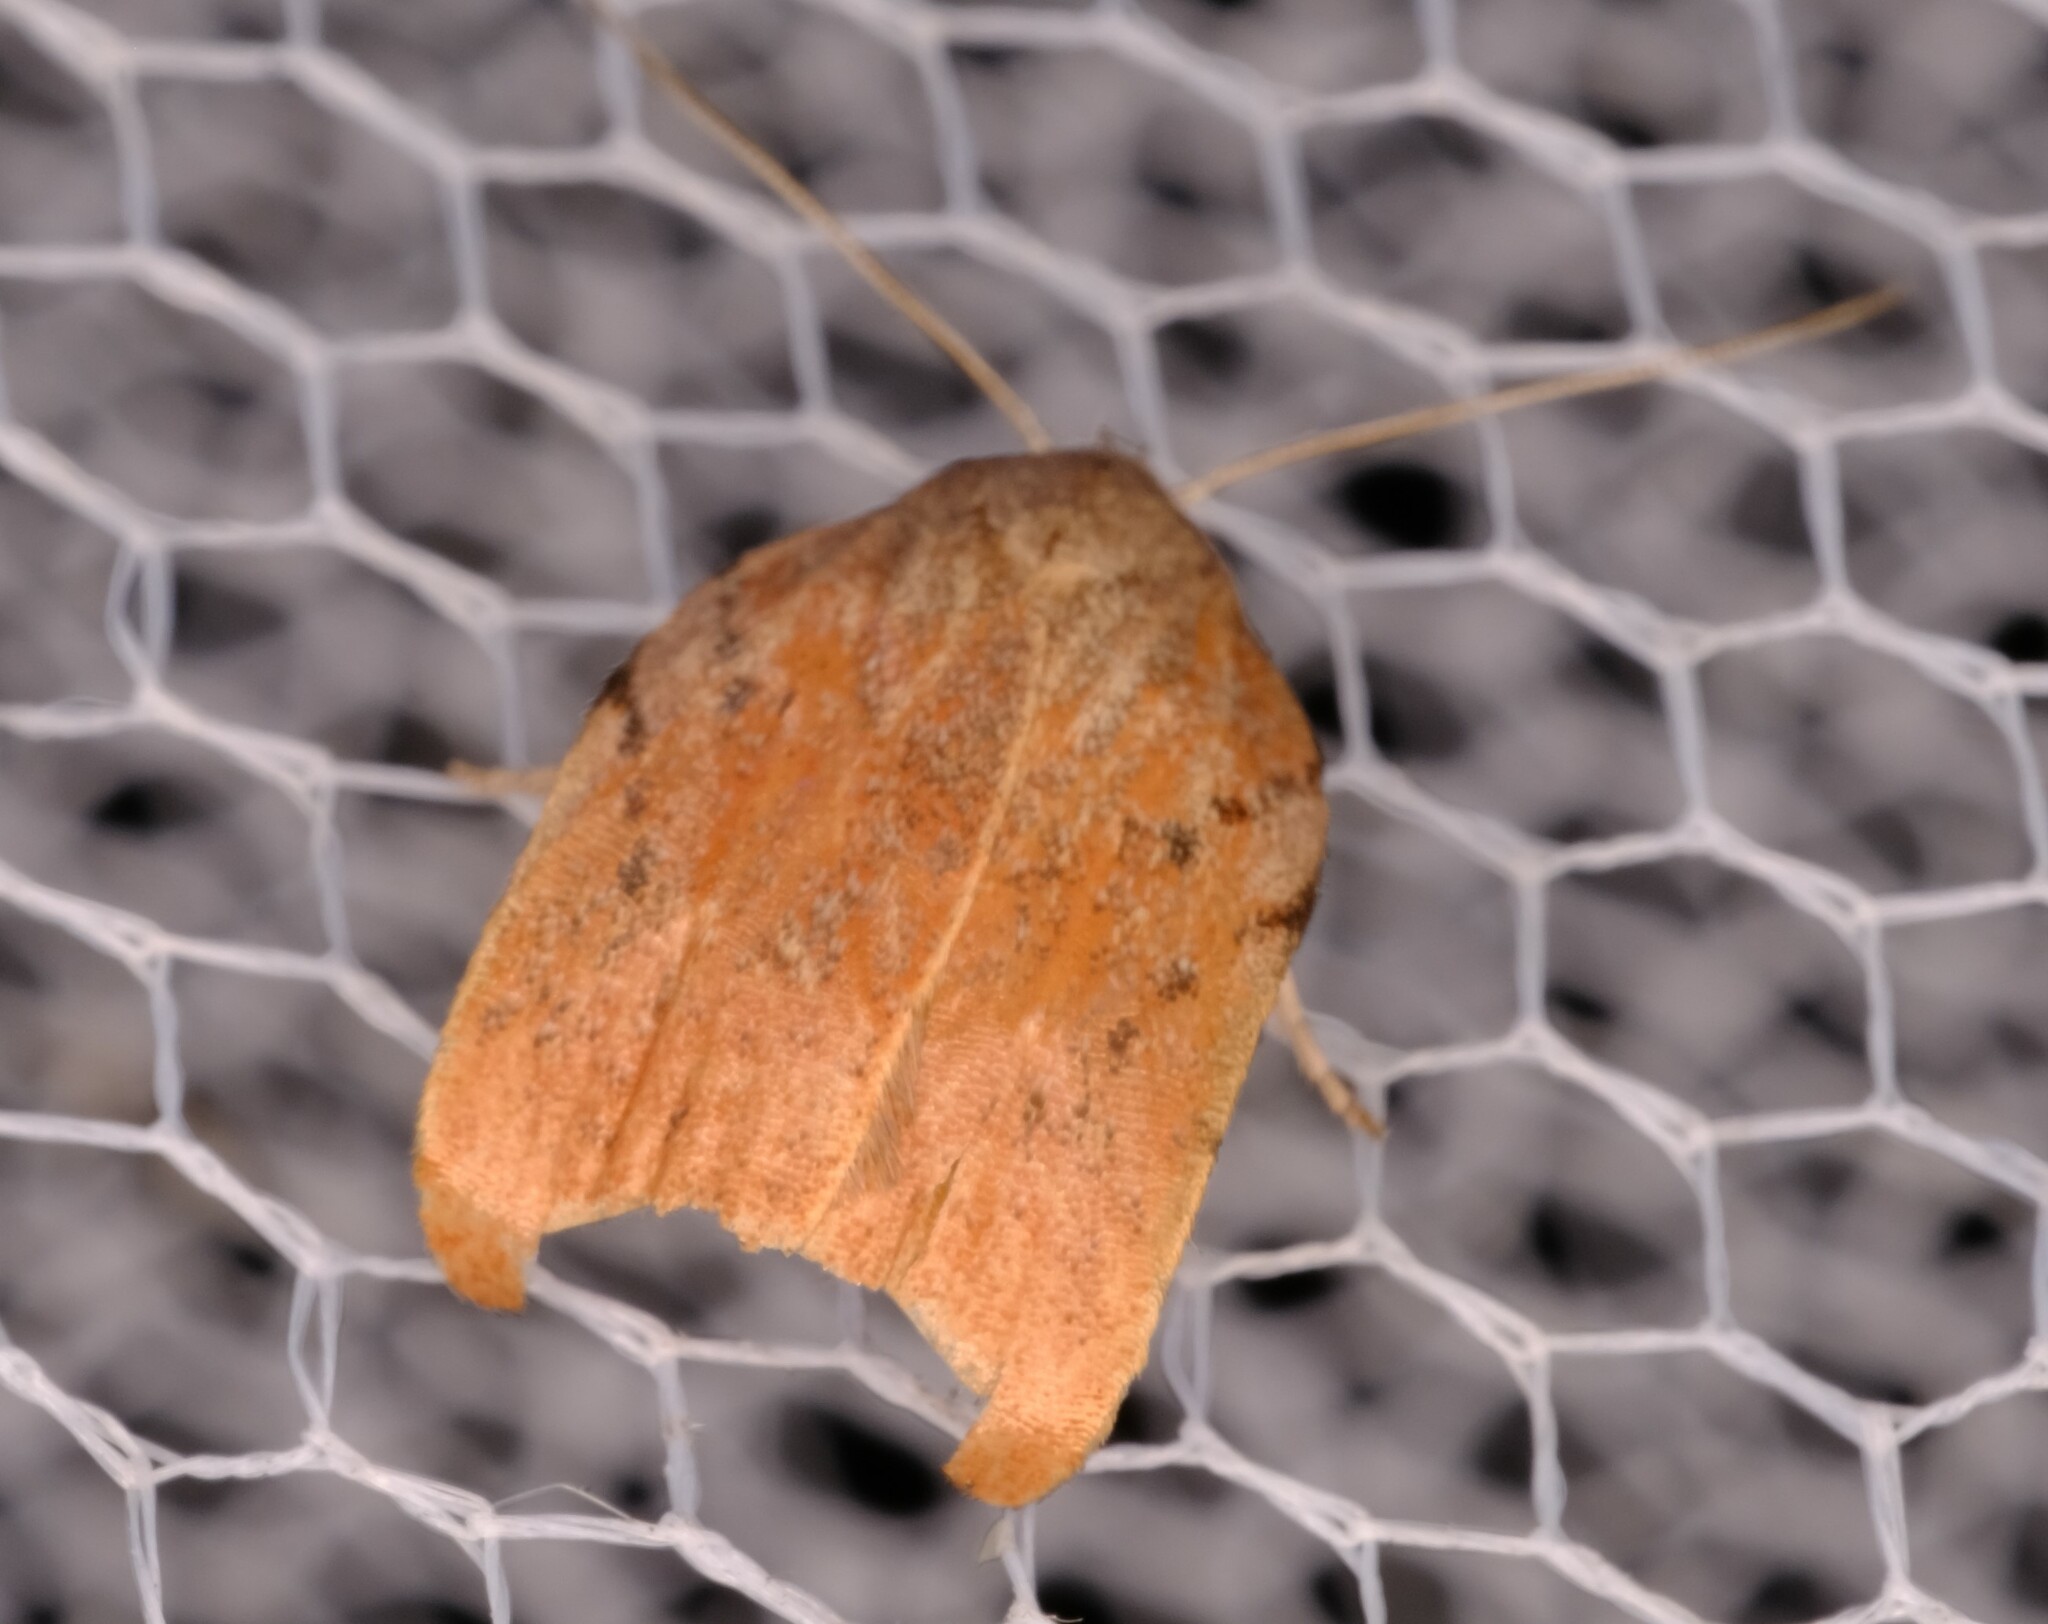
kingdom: Animalia
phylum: Arthropoda
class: Insecta
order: Lepidoptera
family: Oecophoridae
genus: Tortricopsis
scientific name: Tortricopsis pyroptis
